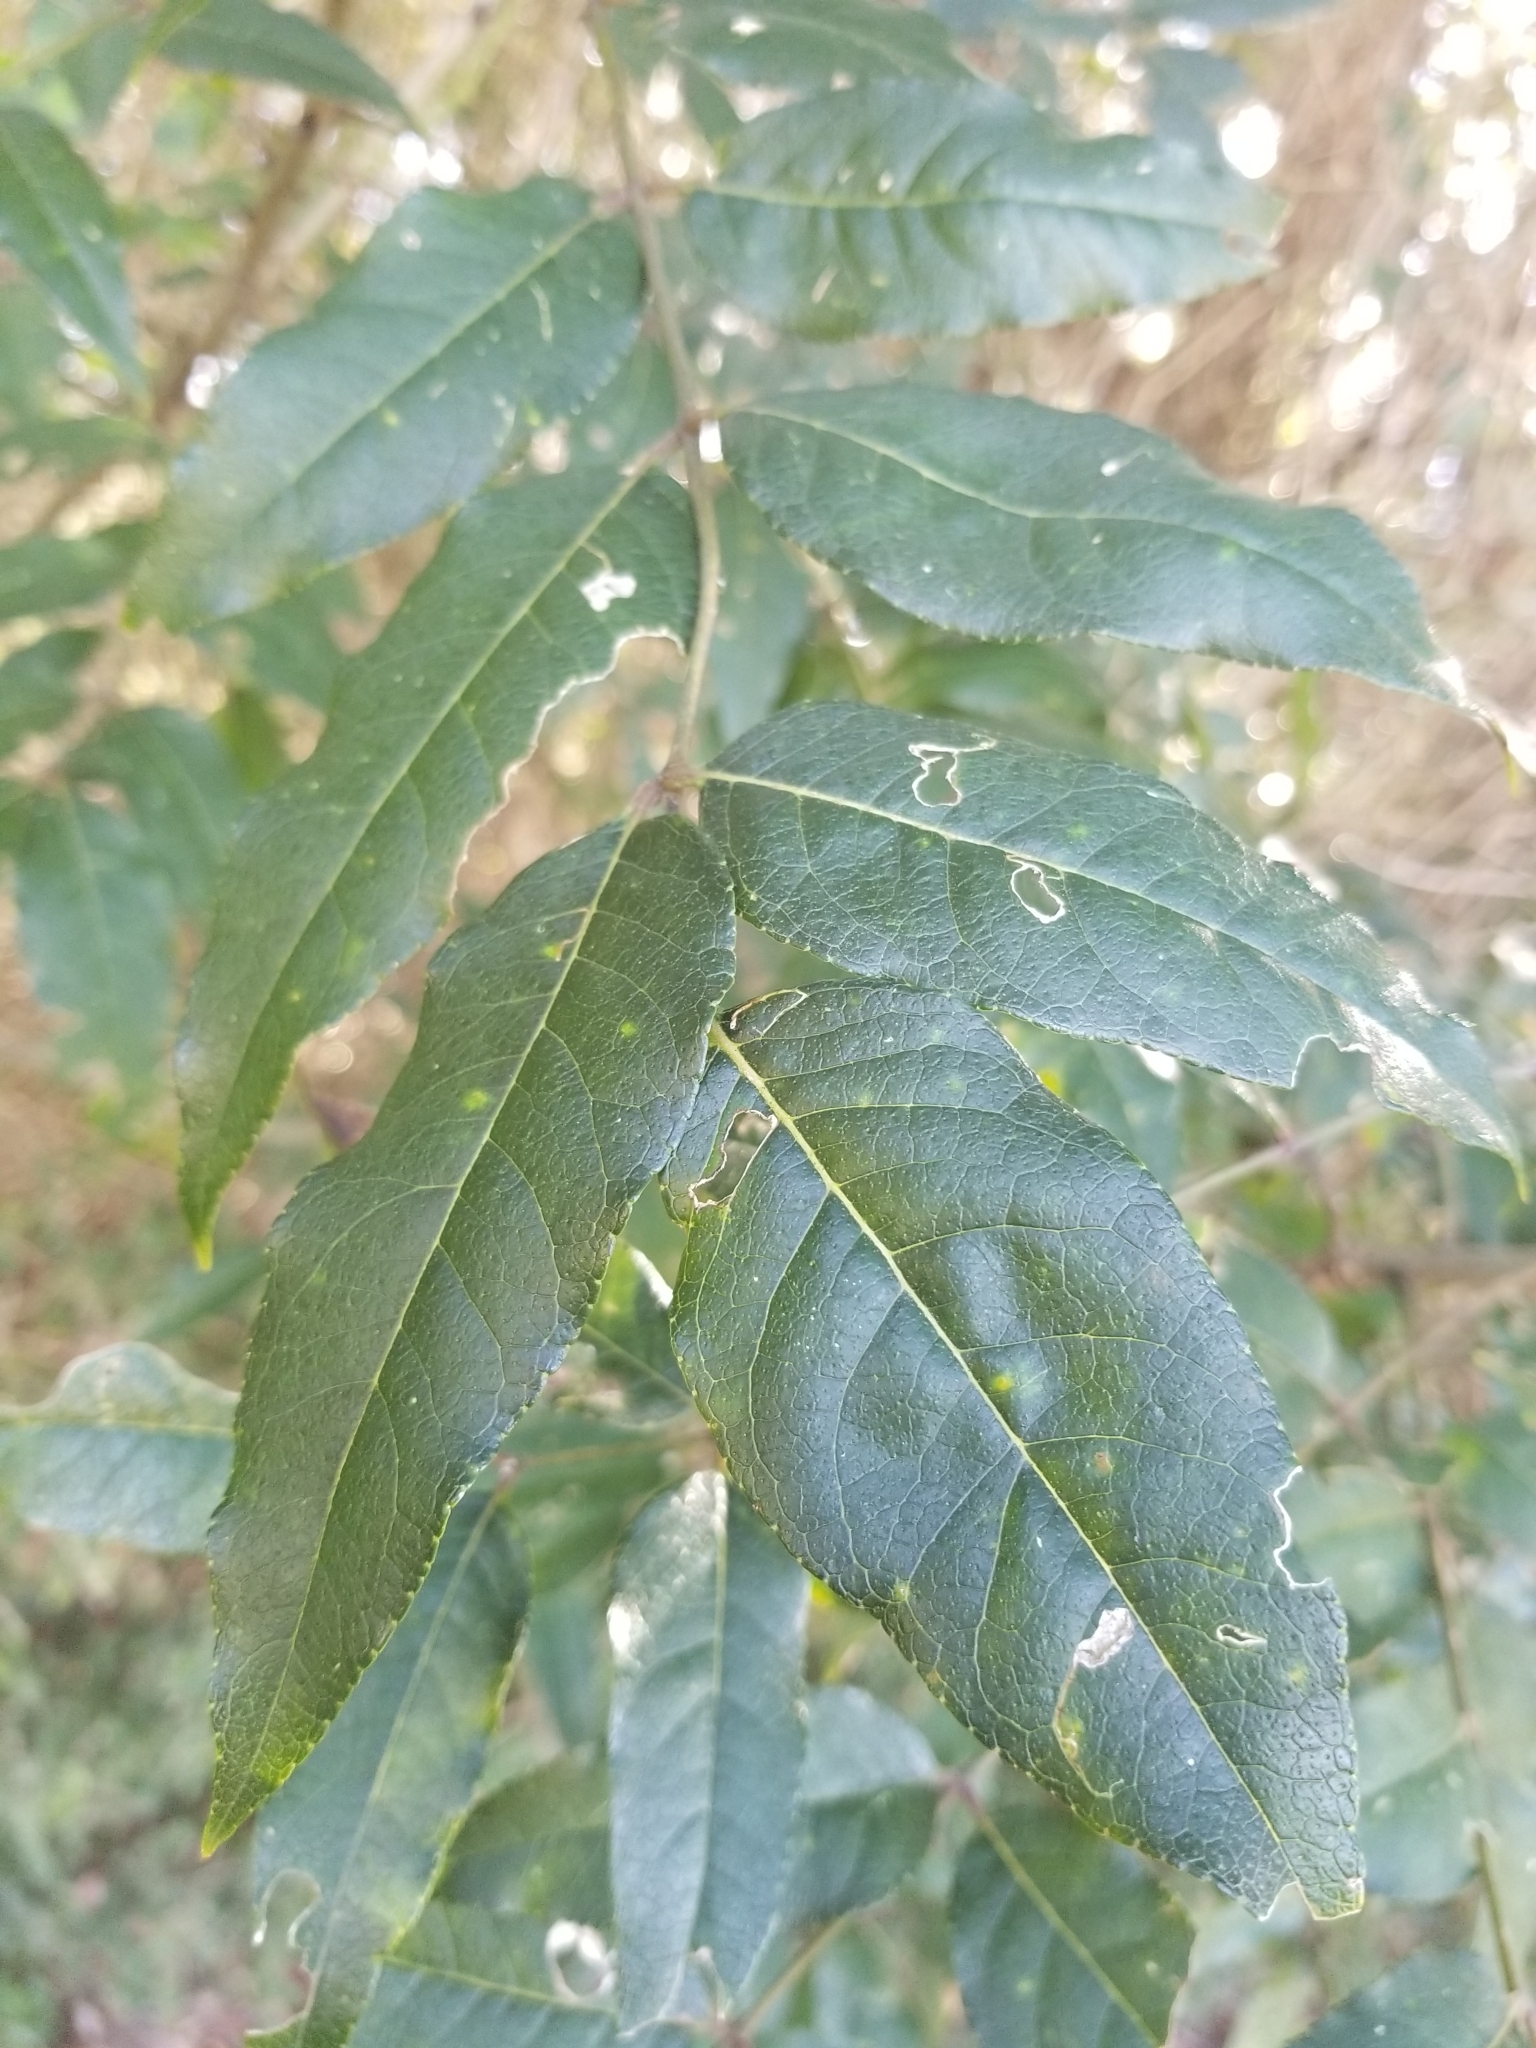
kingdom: Plantae
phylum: Tracheophyta
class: Magnoliopsida
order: Sapindales
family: Rutaceae
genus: Zanthoxylum
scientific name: Zanthoxylum clava-herculis
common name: Hercules'-club
